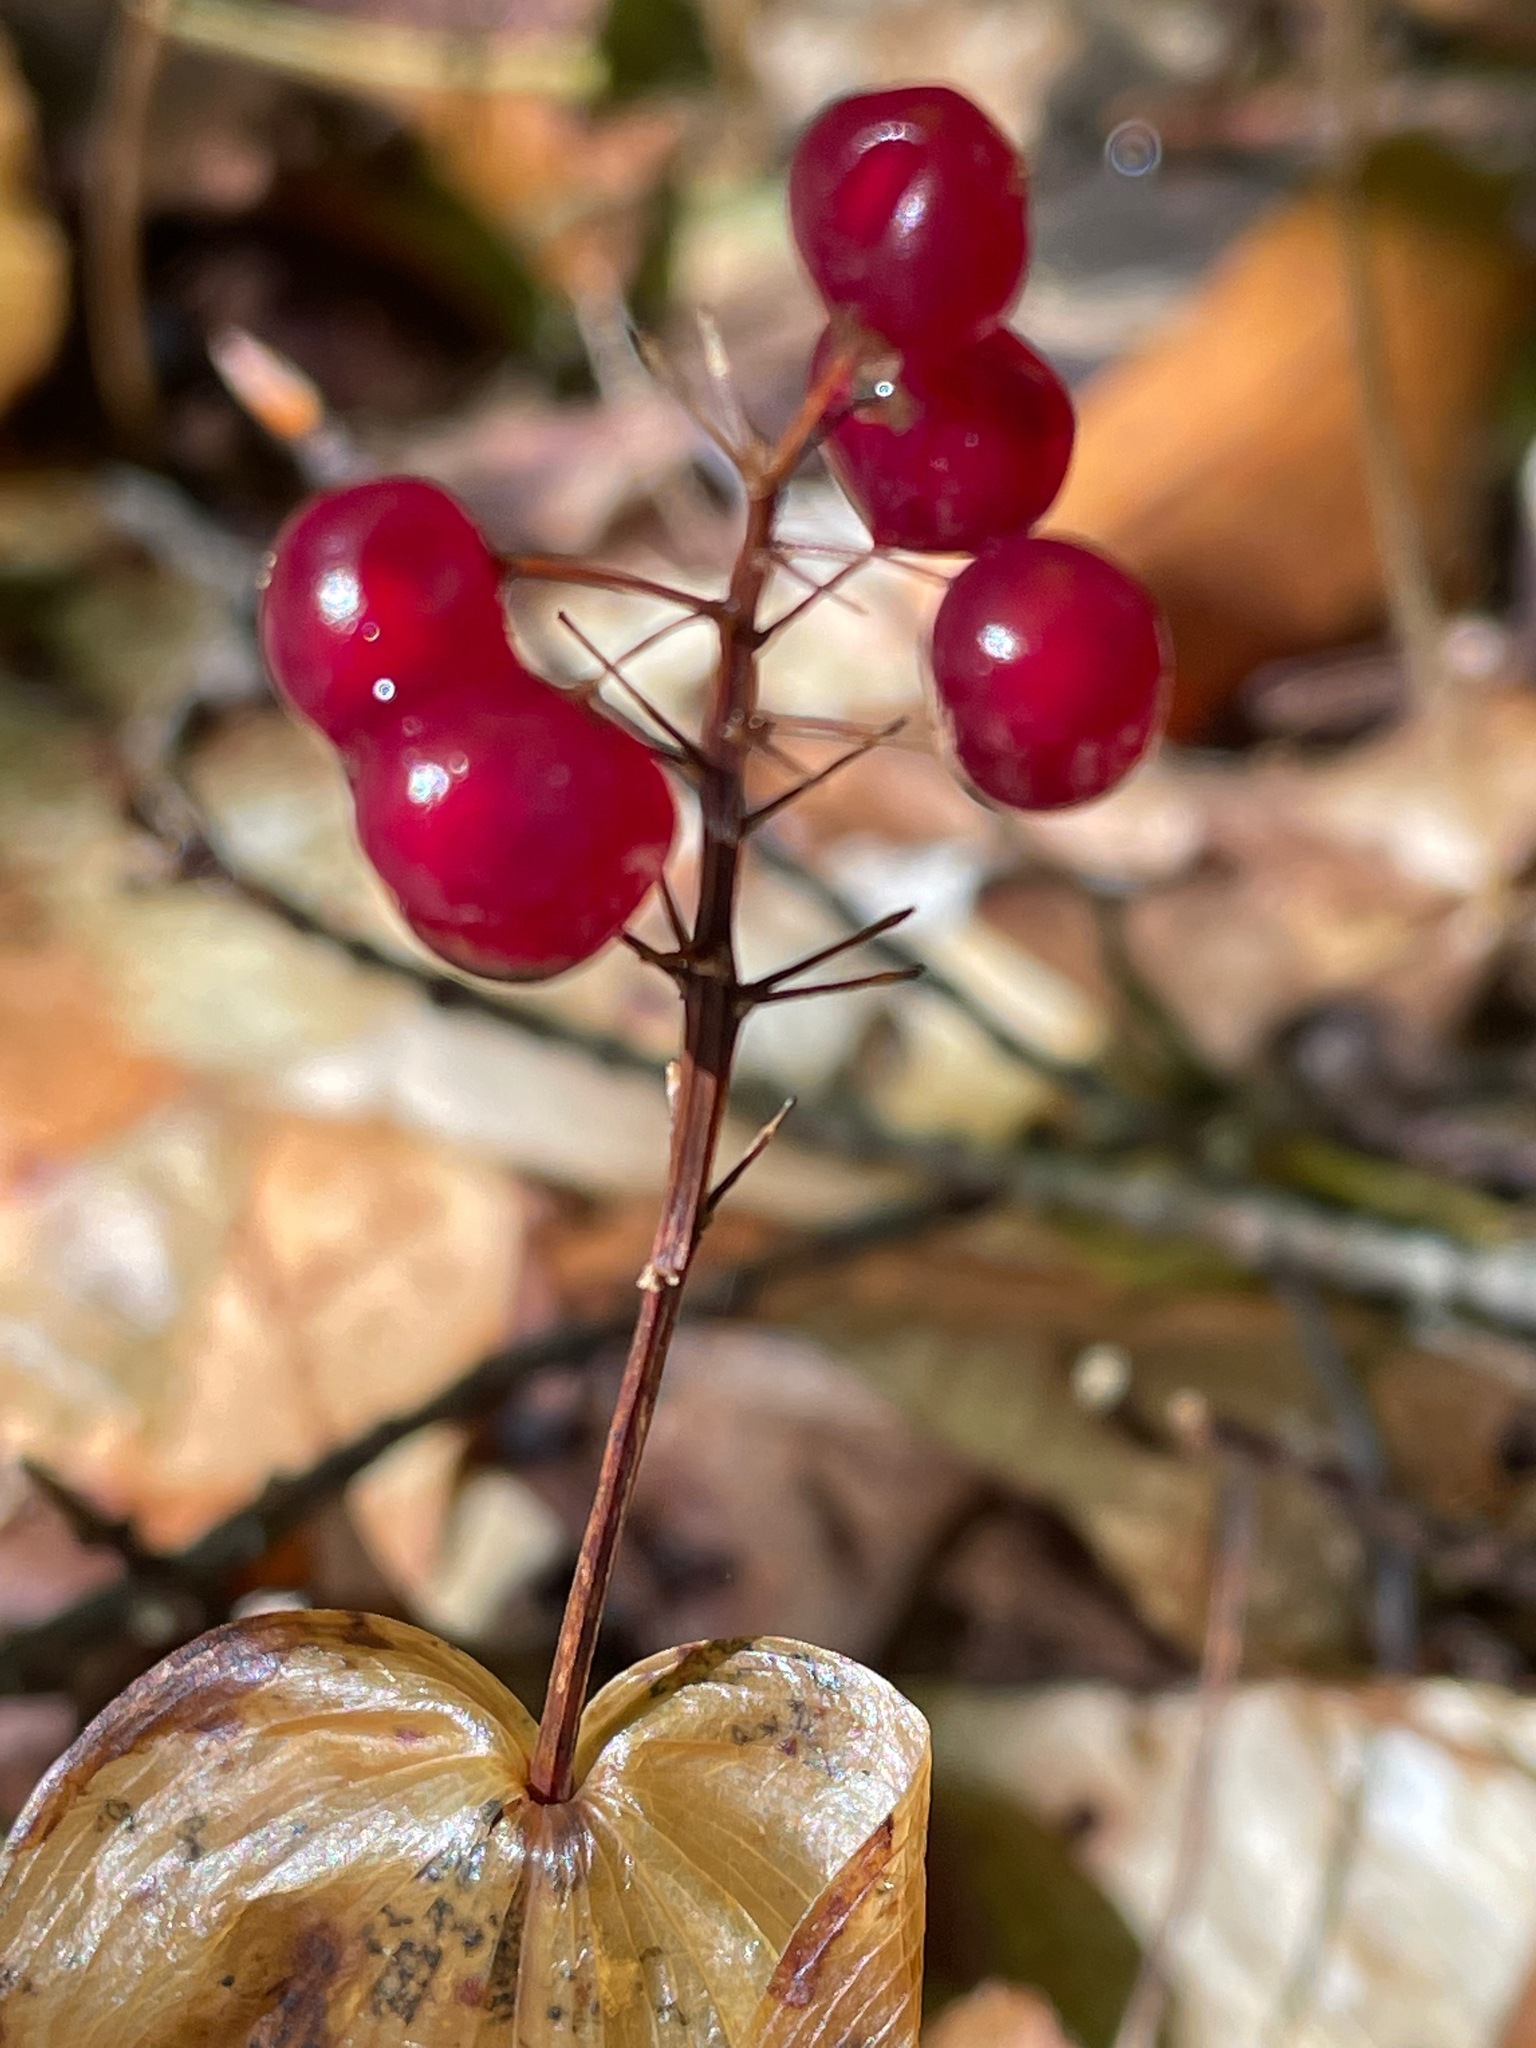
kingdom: Plantae
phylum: Tracheophyta
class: Liliopsida
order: Asparagales
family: Asparagaceae
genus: Maianthemum
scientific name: Maianthemum canadense
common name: False lily-of-the-valley
